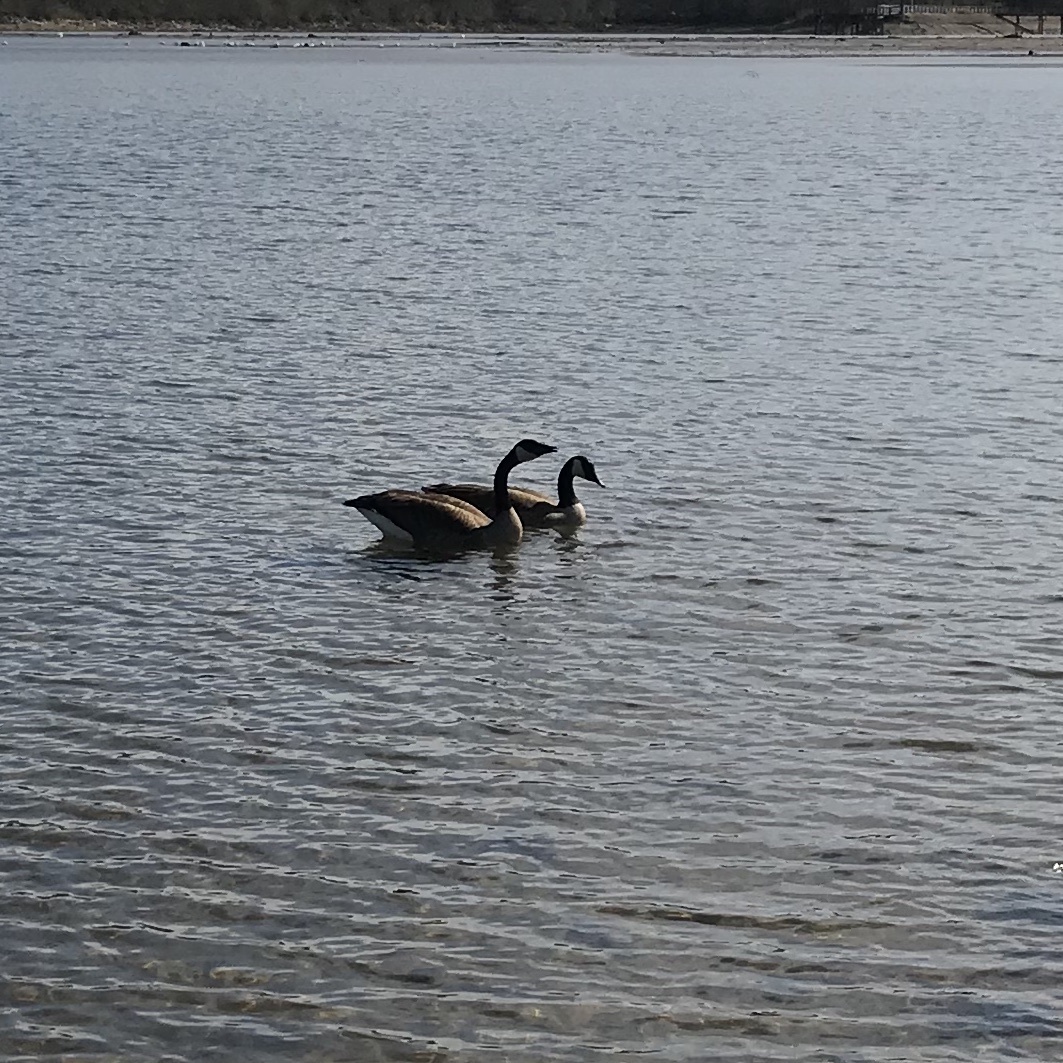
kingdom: Animalia
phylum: Chordata
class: Aves
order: Anseriformes
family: Anatidae
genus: Branta
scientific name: Branta canadensis
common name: Canada goose
